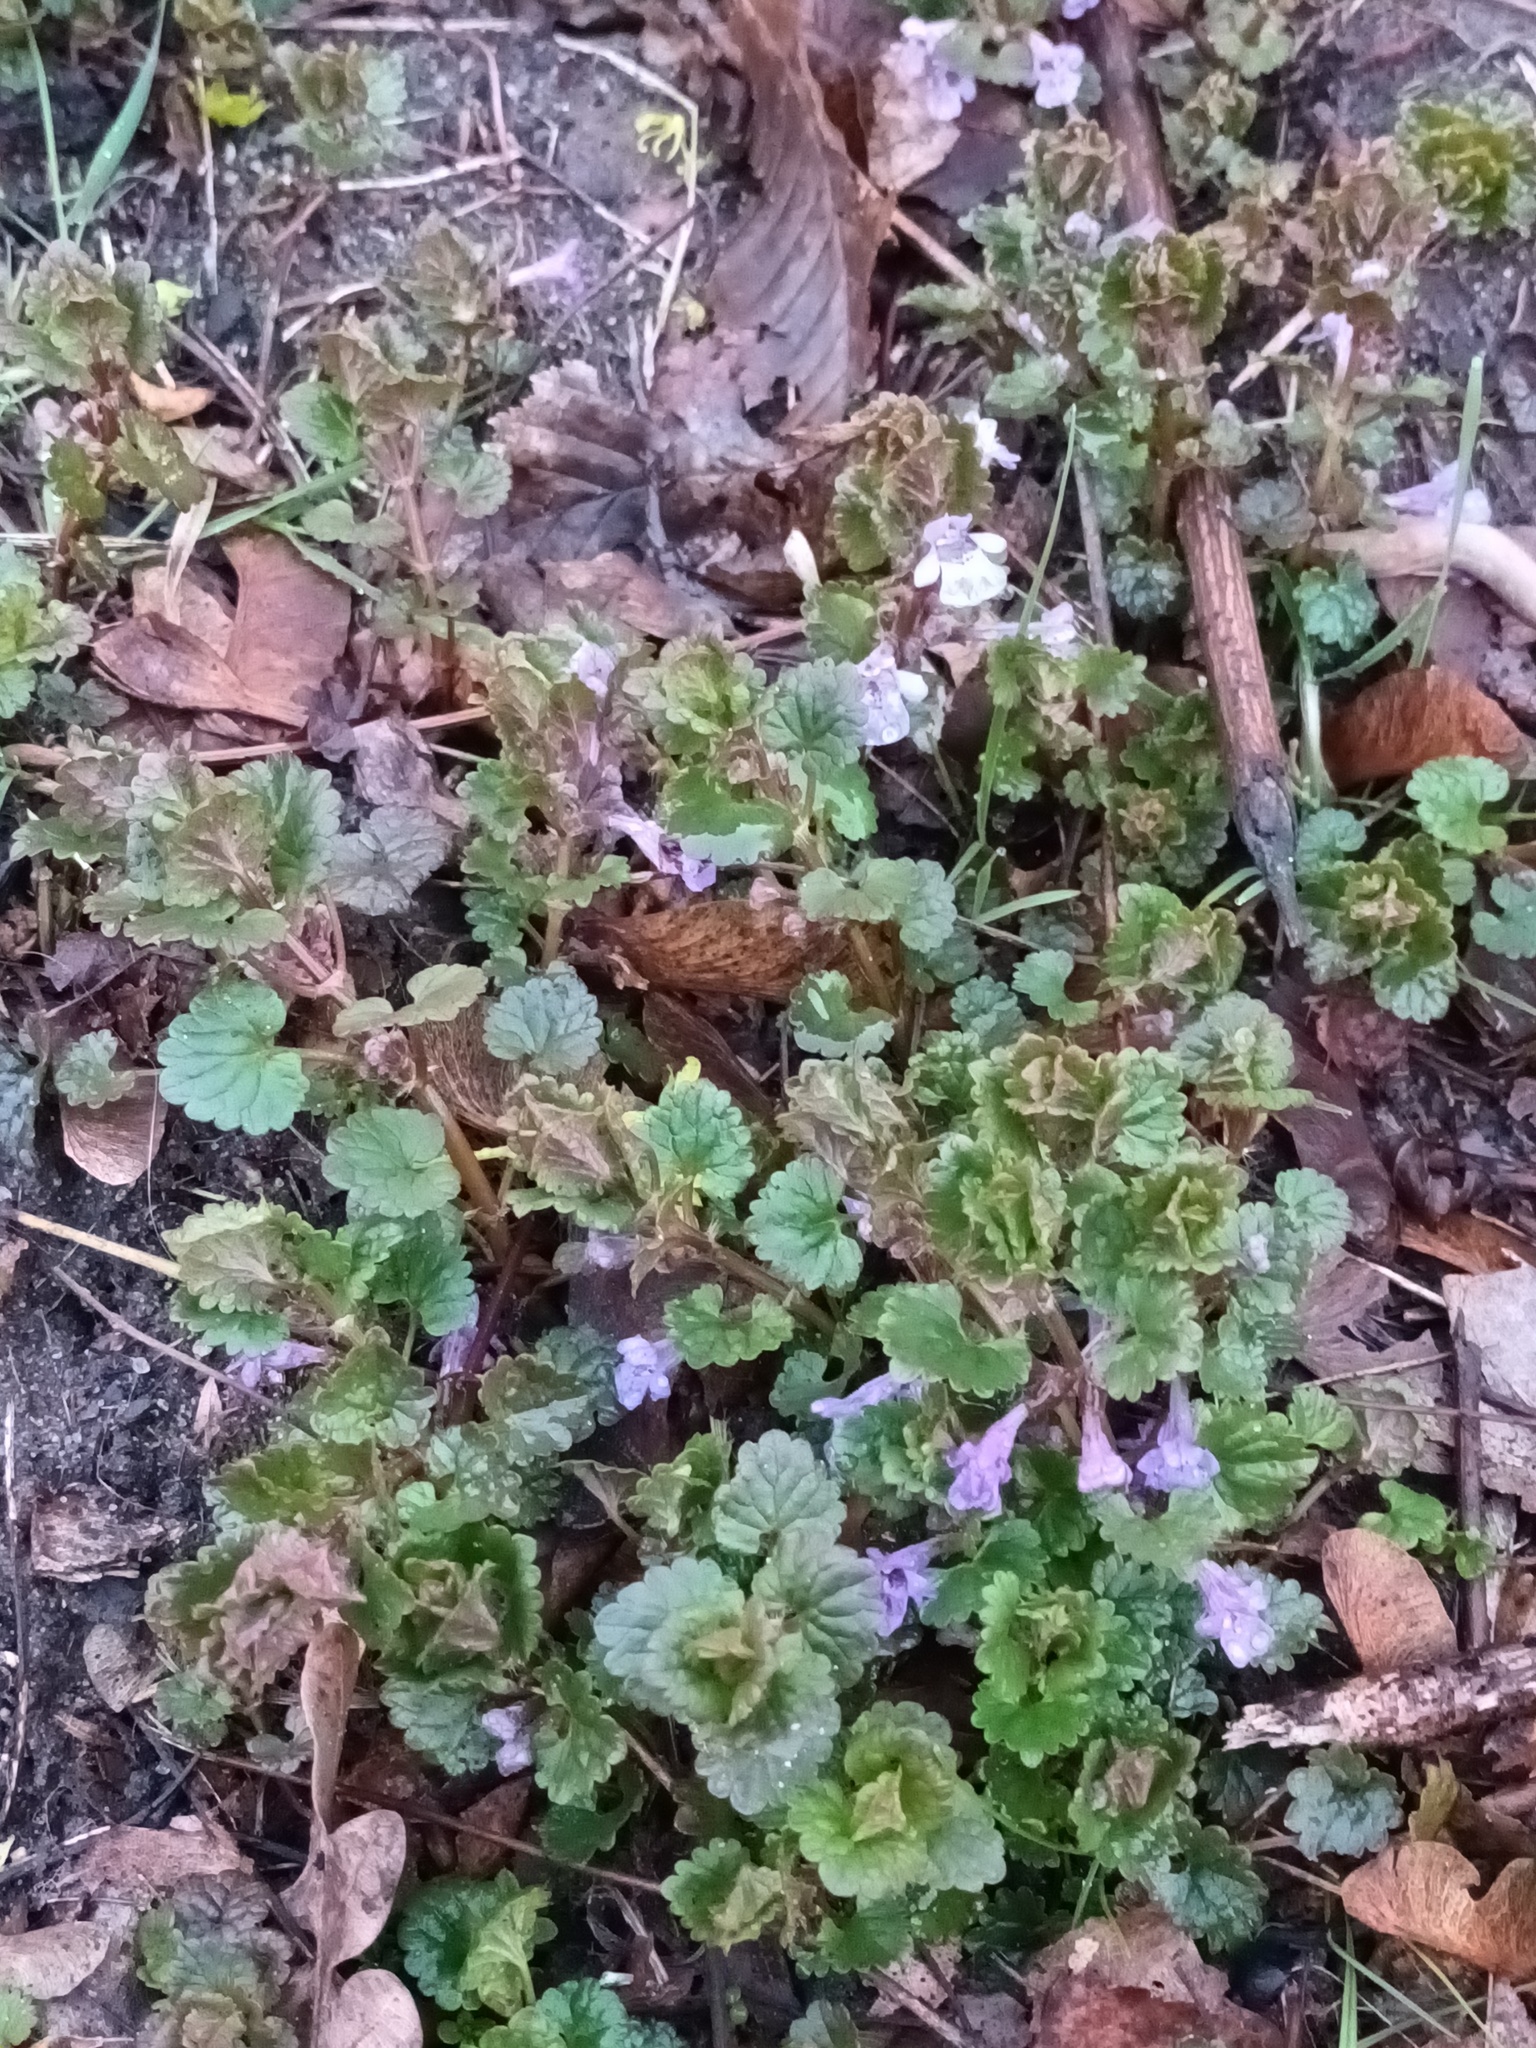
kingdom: Plantae
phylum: Tracheophyta
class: Magnoliopsida
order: Lamiales
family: Lamiaceae
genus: Glechoma
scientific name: Glechoma hederacea
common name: Ground ivy
